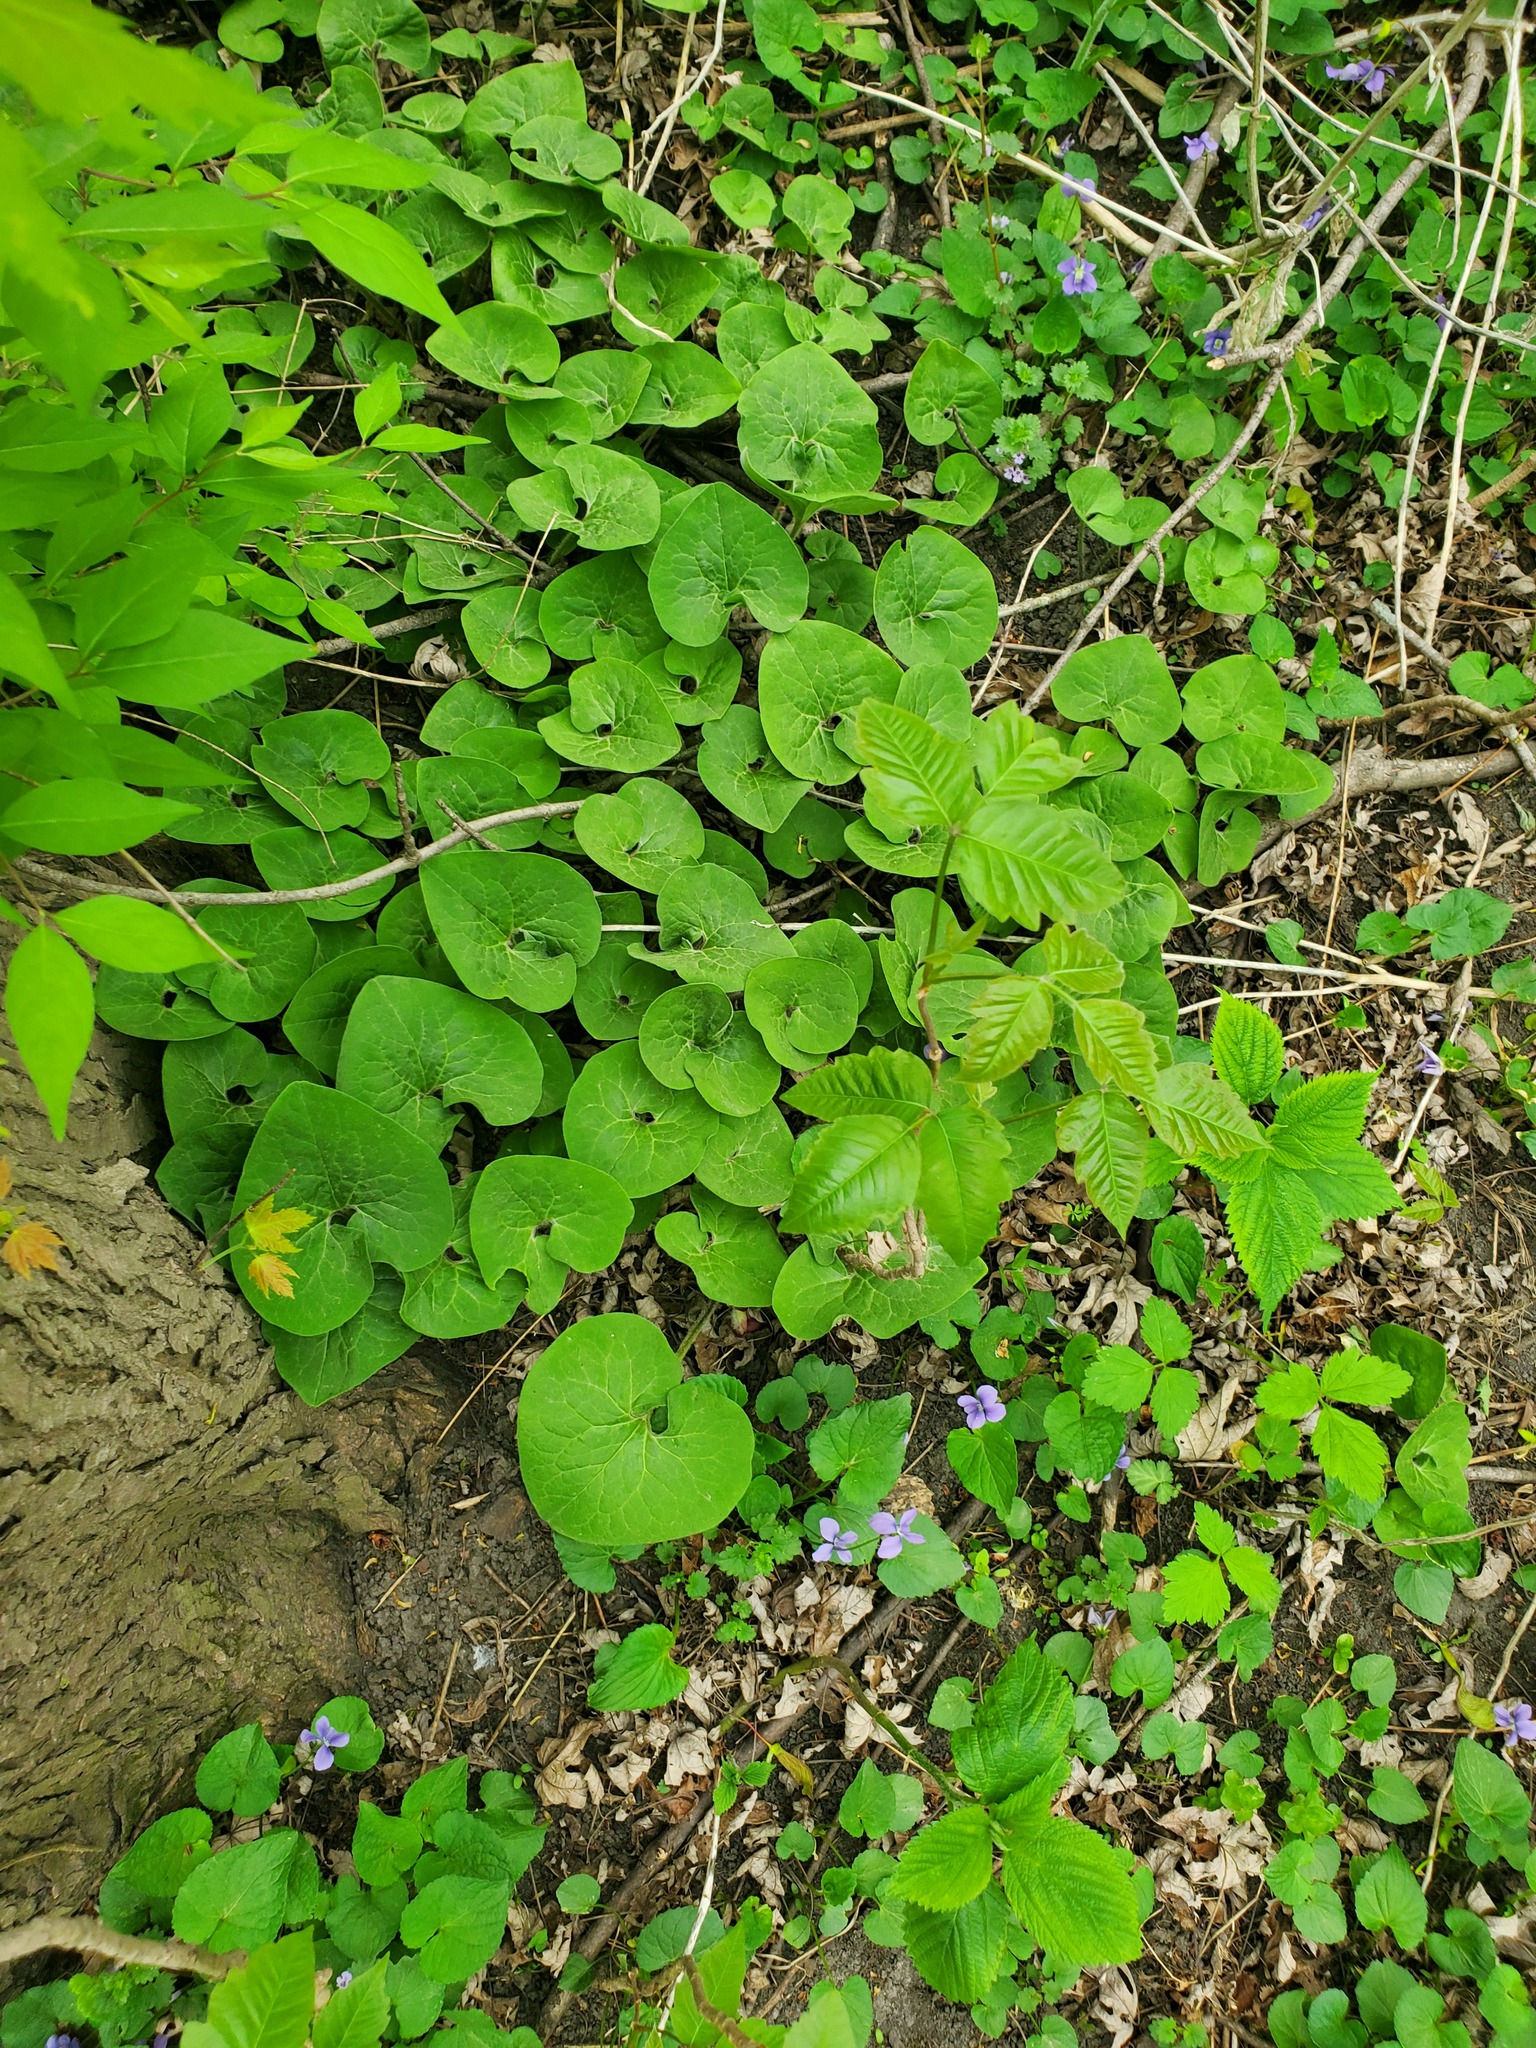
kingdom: Plantae
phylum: Tracheophyta
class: Magnoliopsida
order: Piperales
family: Aristolochiaceae
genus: Asarum
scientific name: Asarum canadense
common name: Wild ginger
